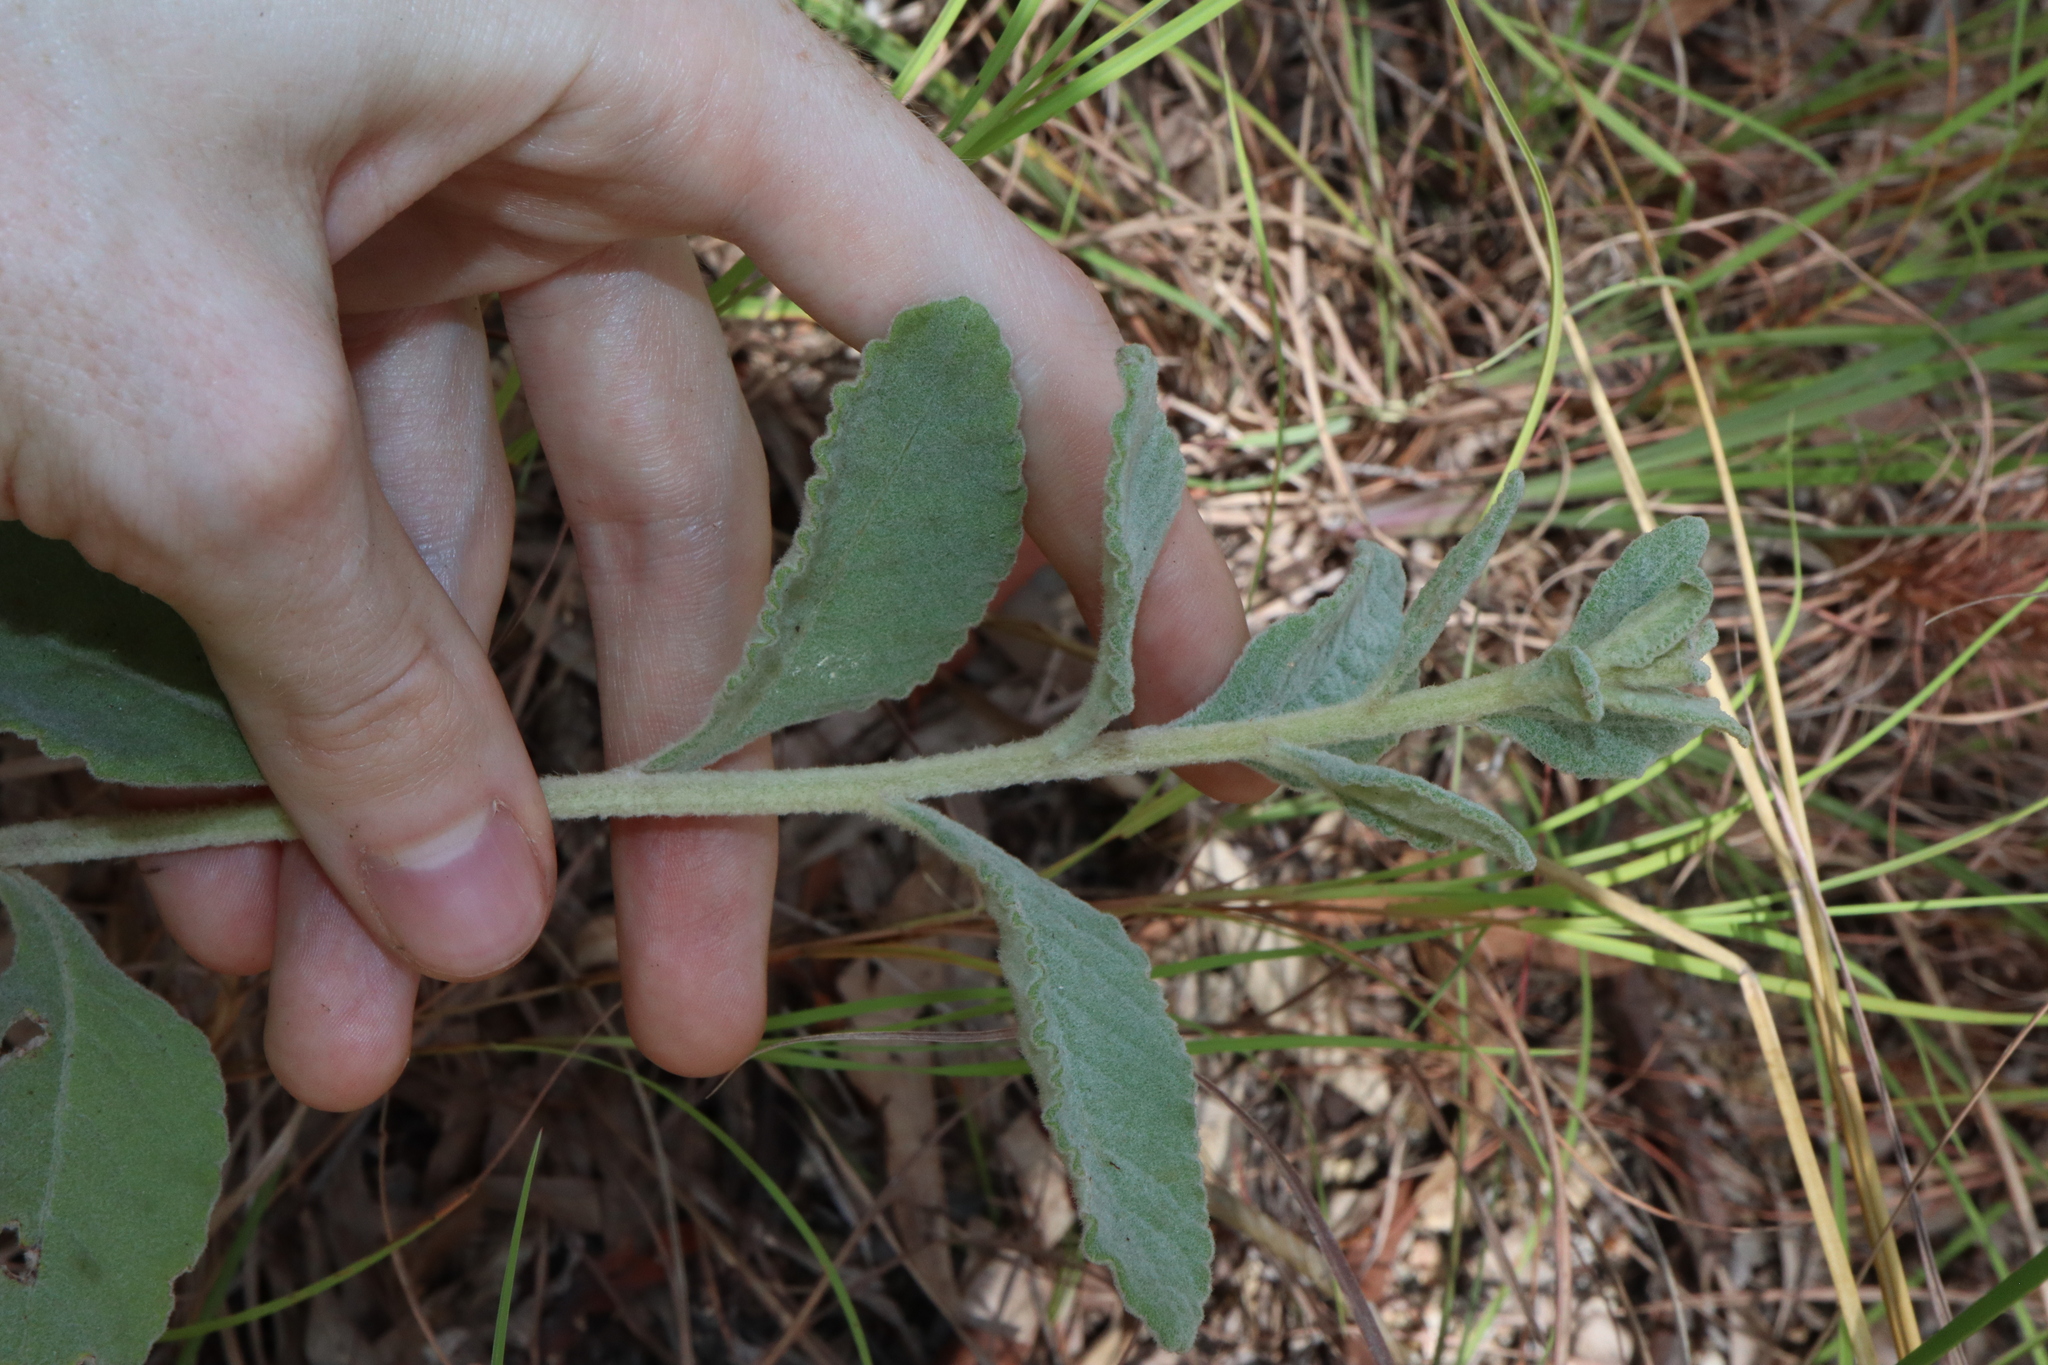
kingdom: Plantae
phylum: Tracheophyta
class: Magnoliopsida
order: Asterales
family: Asteraceae
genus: Cyanthillium
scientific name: Cyanthillium cinereum
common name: Little ironweed
